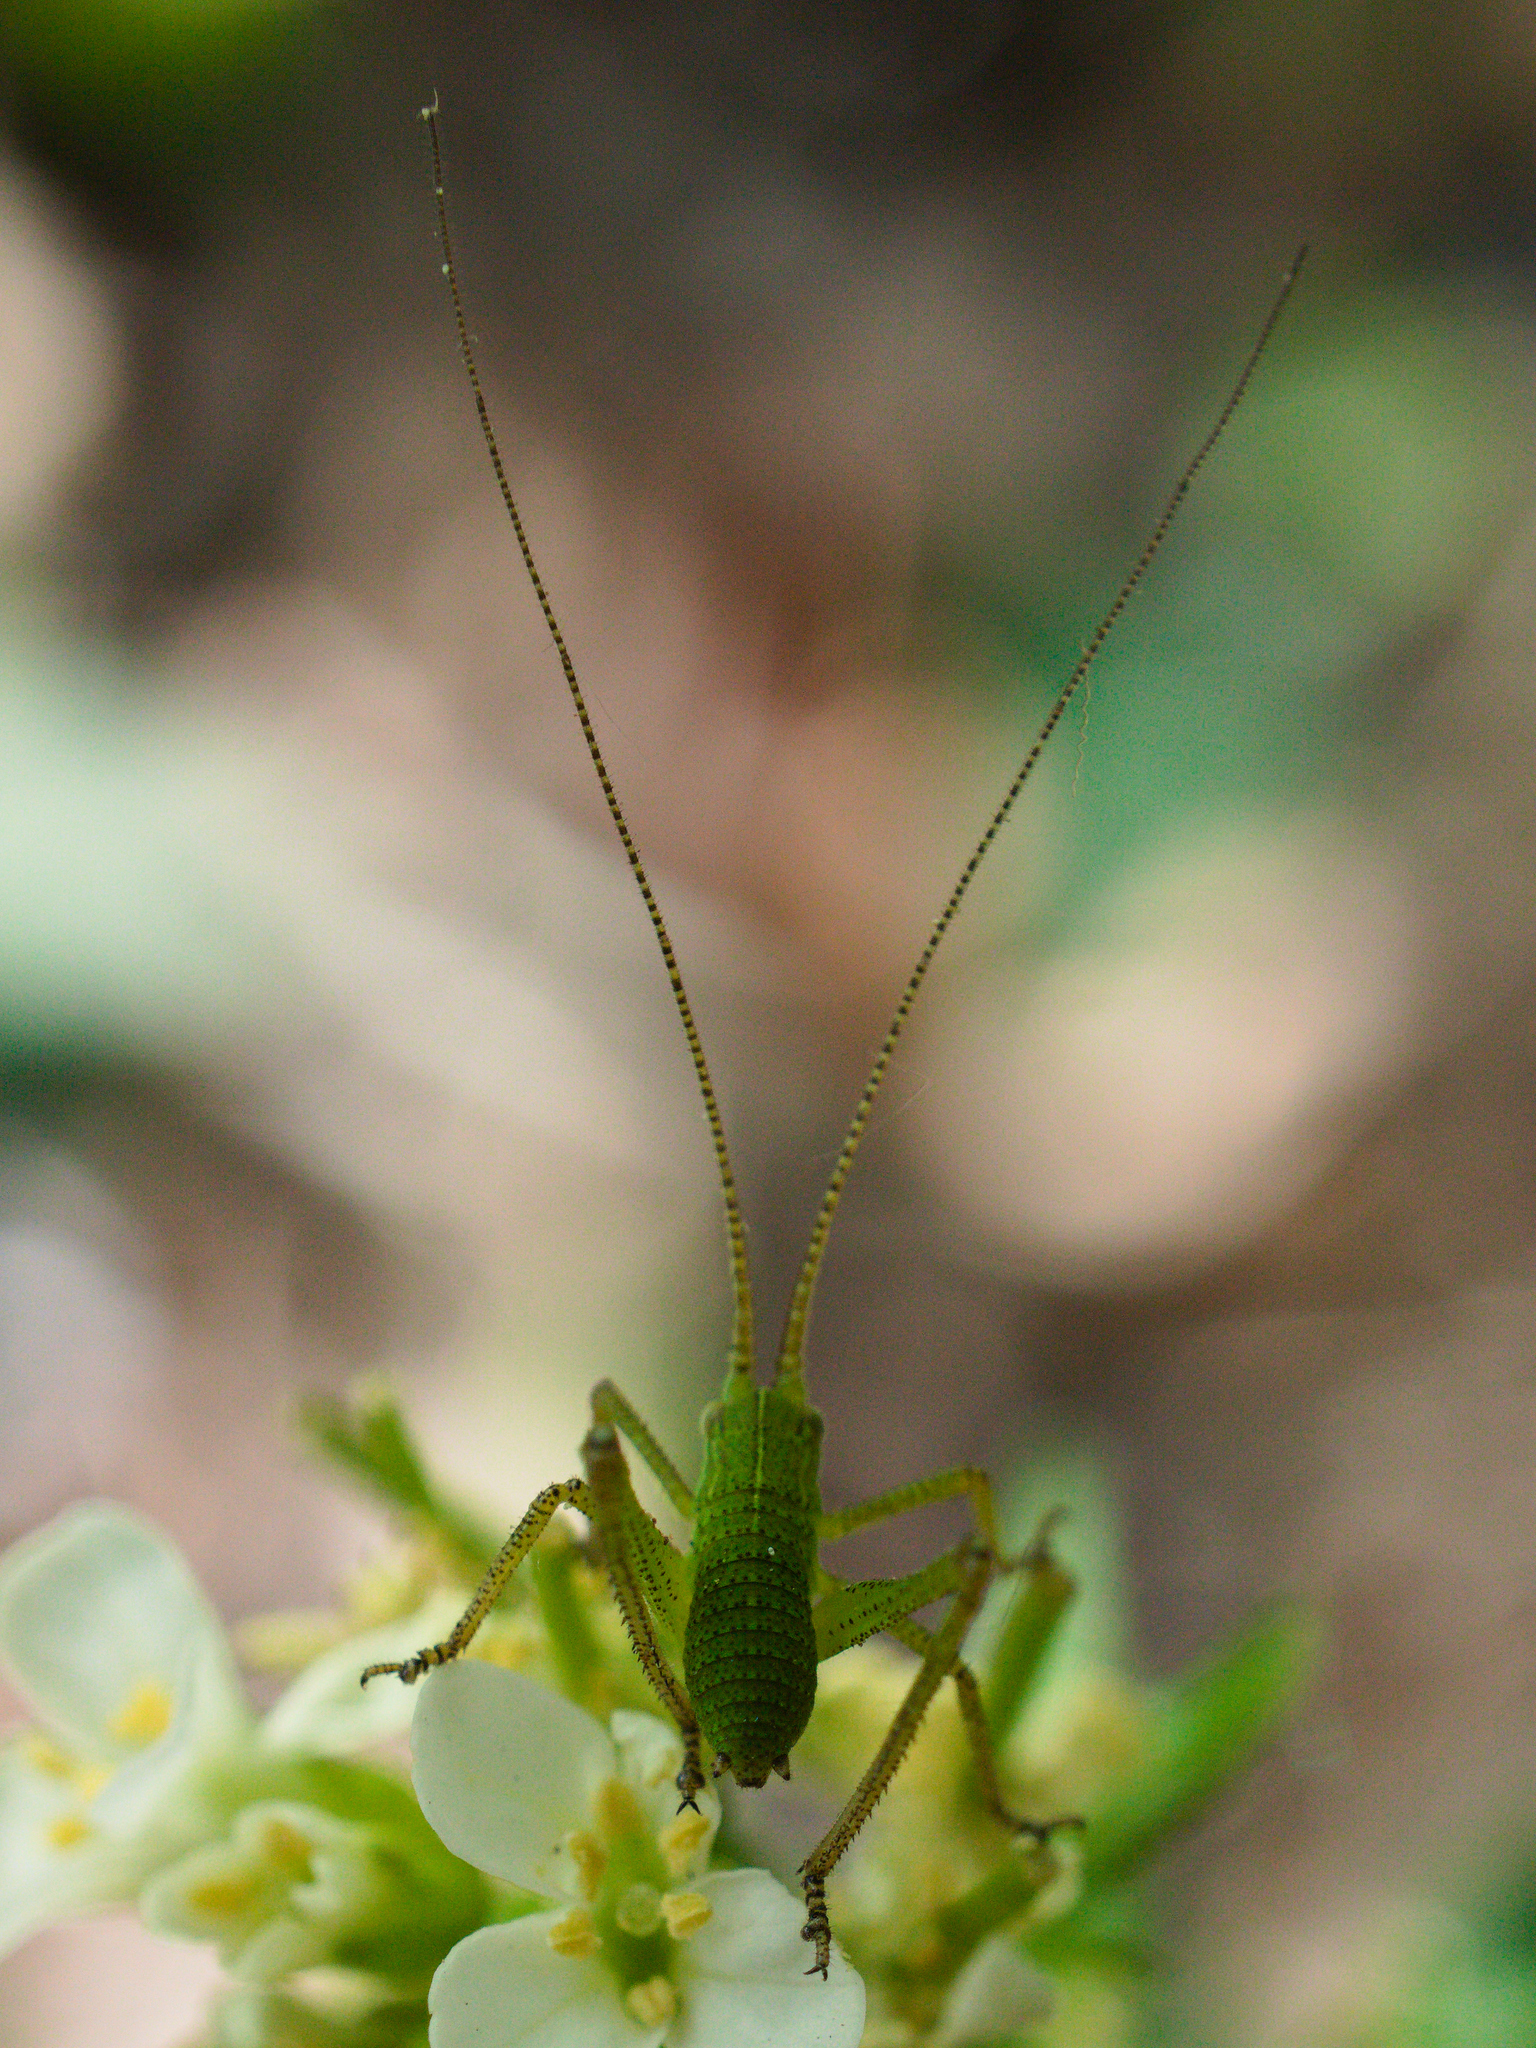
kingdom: Animalia
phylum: Arthropoda
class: Insecta
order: Orthoptera
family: Tettigoniidae
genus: Barbitistes
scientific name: Barbitistes serricauda
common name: Saw-tailed bush-cricket
